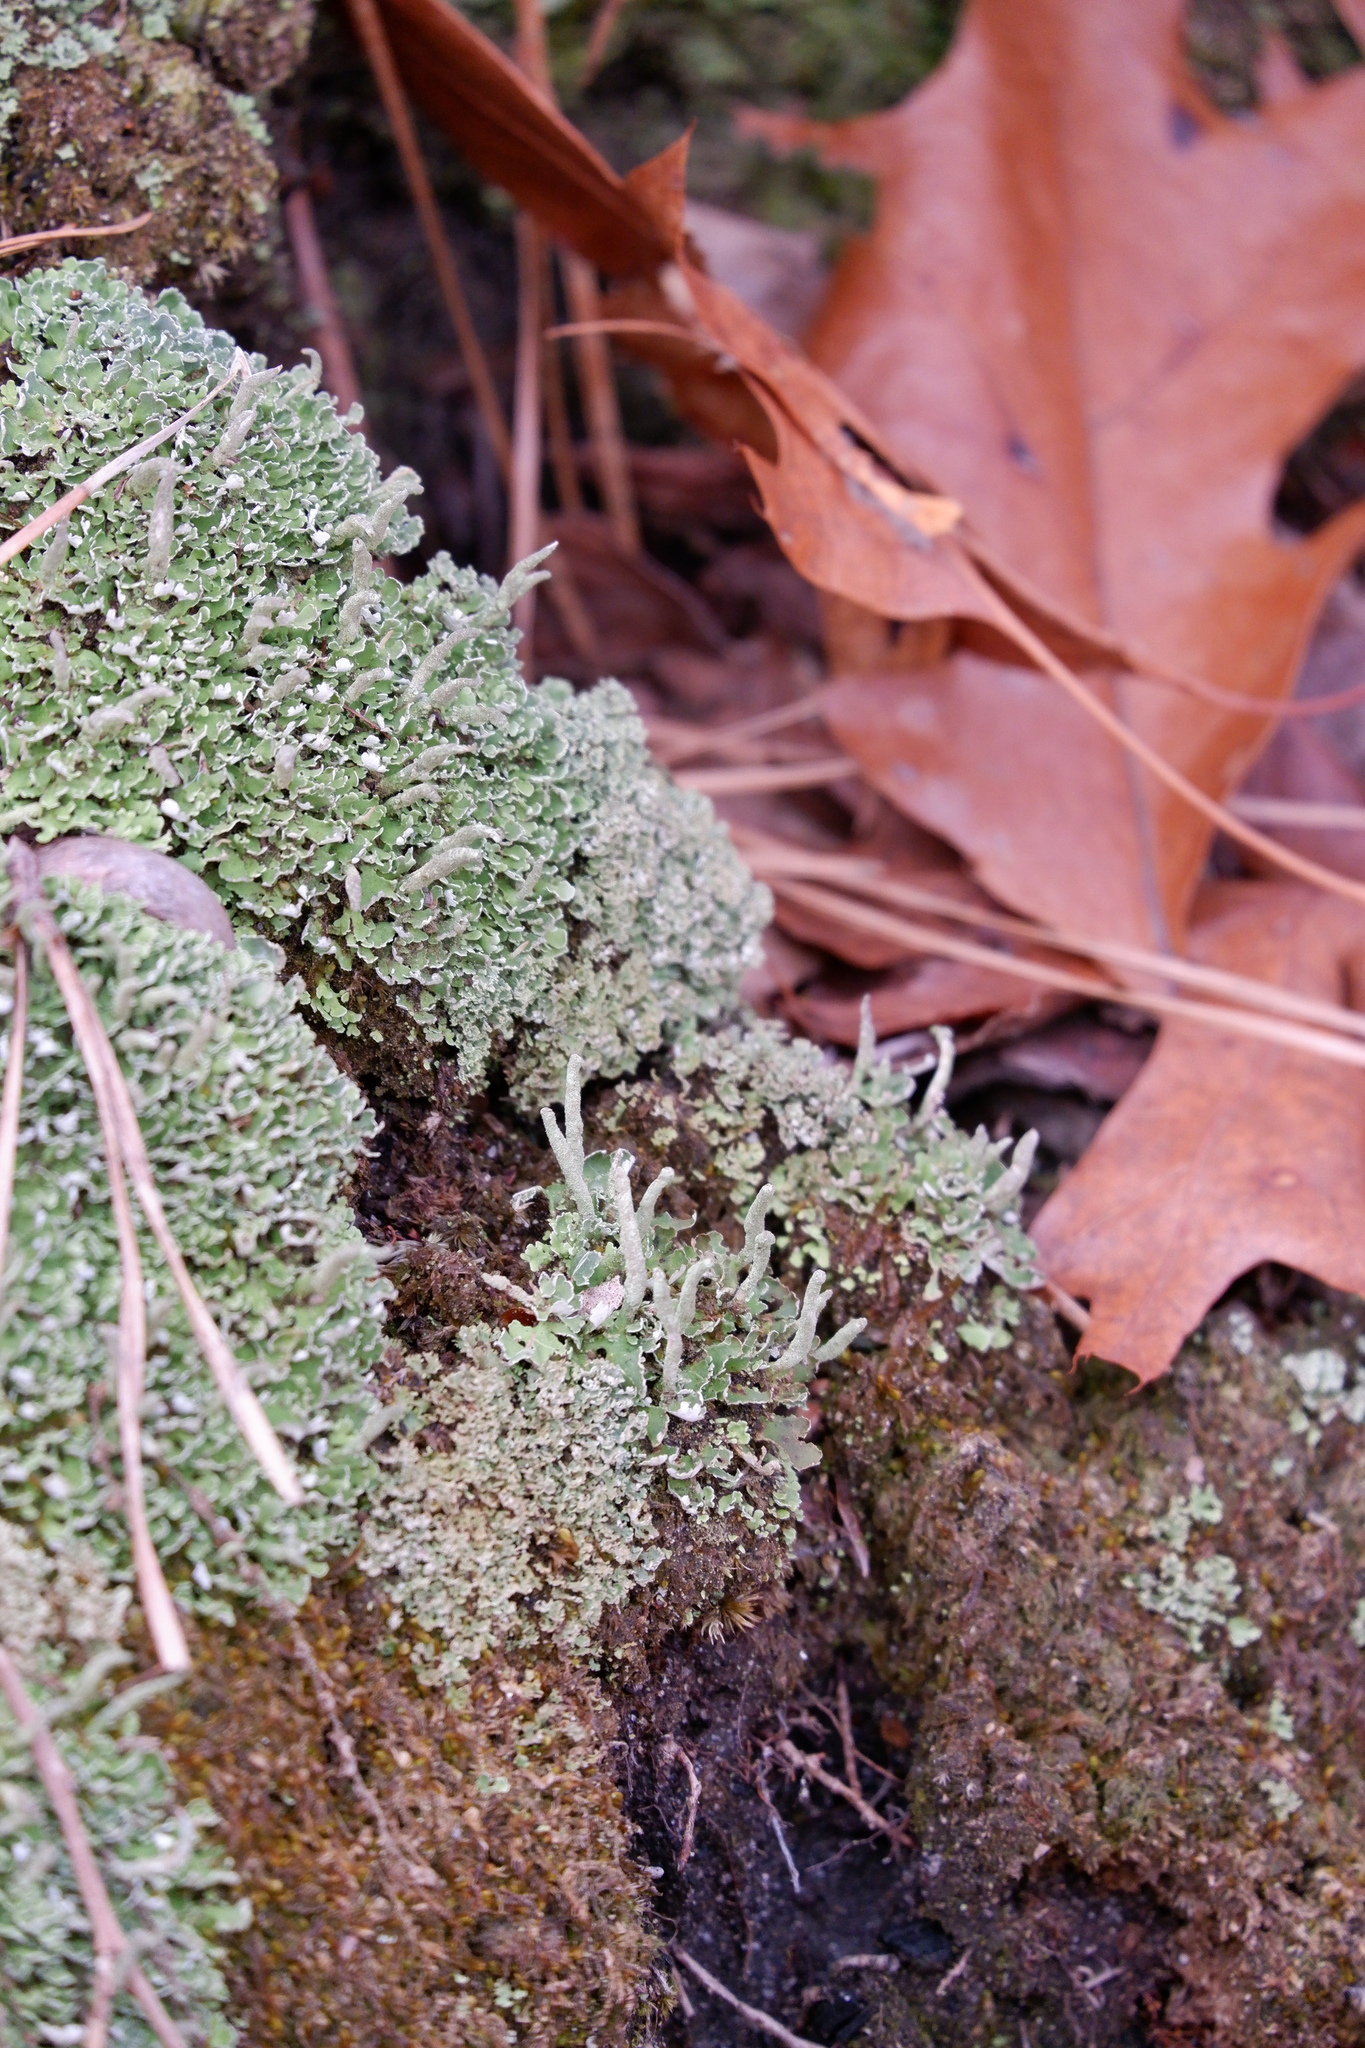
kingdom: Fungi
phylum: Ascomycota
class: Lecanoromycetes
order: Lecanorales
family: Cladoniaceae
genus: Cladonia
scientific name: Cladonia coniocraea
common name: Common powderhorn
